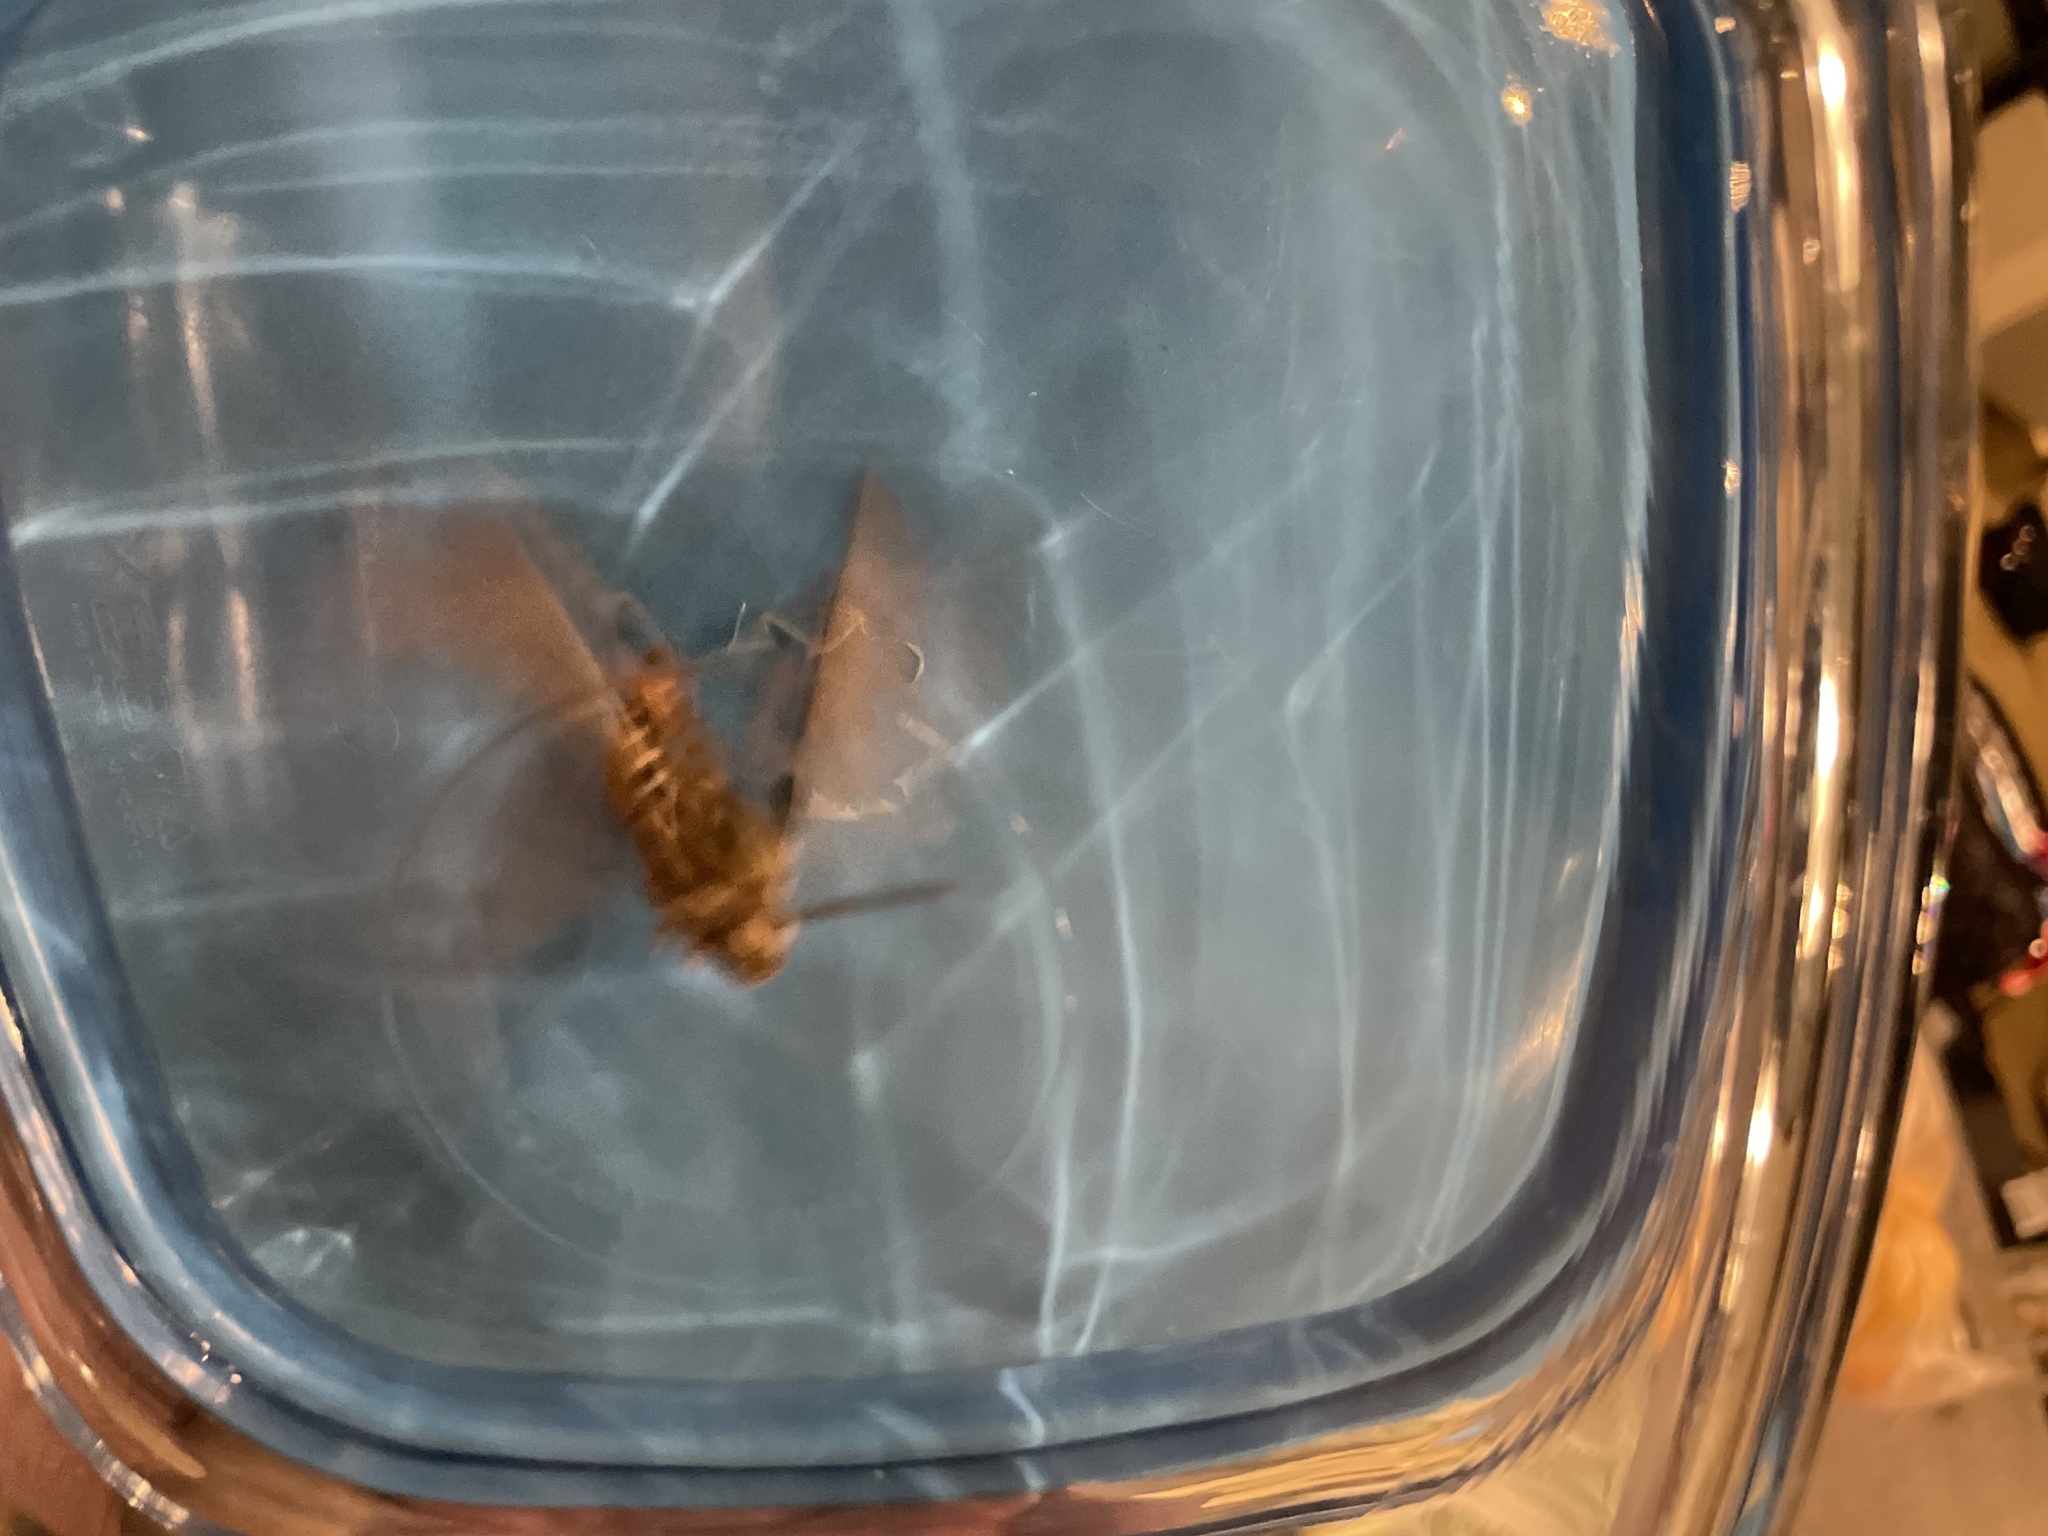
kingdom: Animalia
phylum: Arthropoda
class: Insecta
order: Lepidoptera
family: Sphingidae
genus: Hyles
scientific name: Hyles lineata
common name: White-lined sphinx
